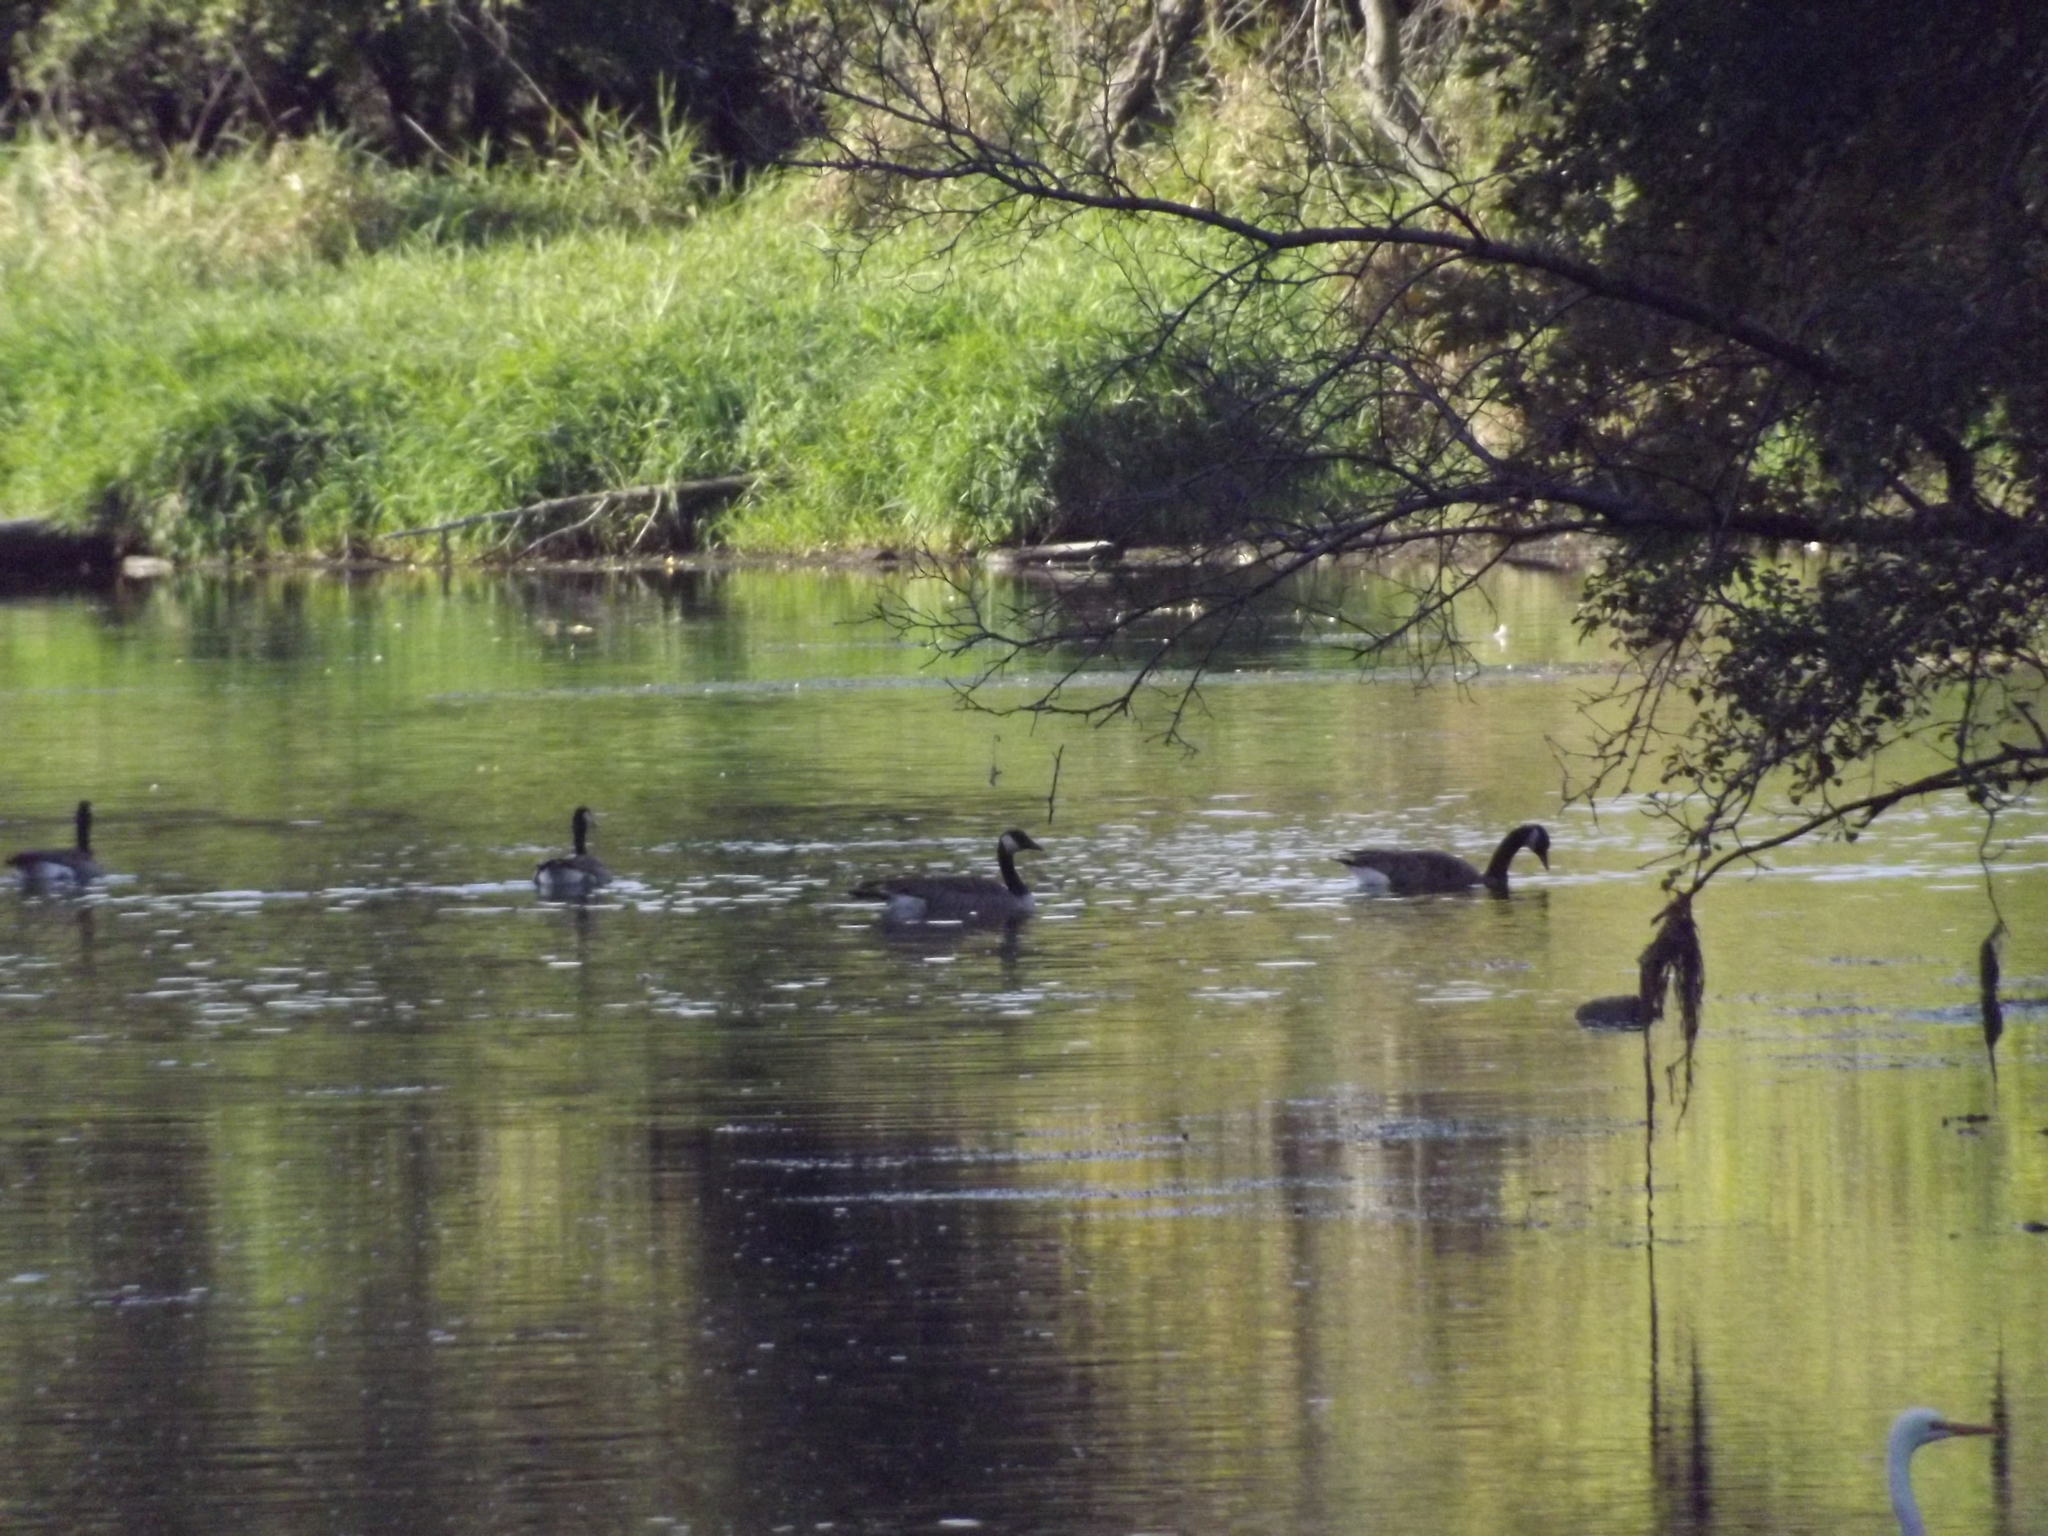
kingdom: Animalia
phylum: Chordata
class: Aves
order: Anseriformes
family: Anatidae
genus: Branta
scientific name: Branta canadensis
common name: Canada goose
